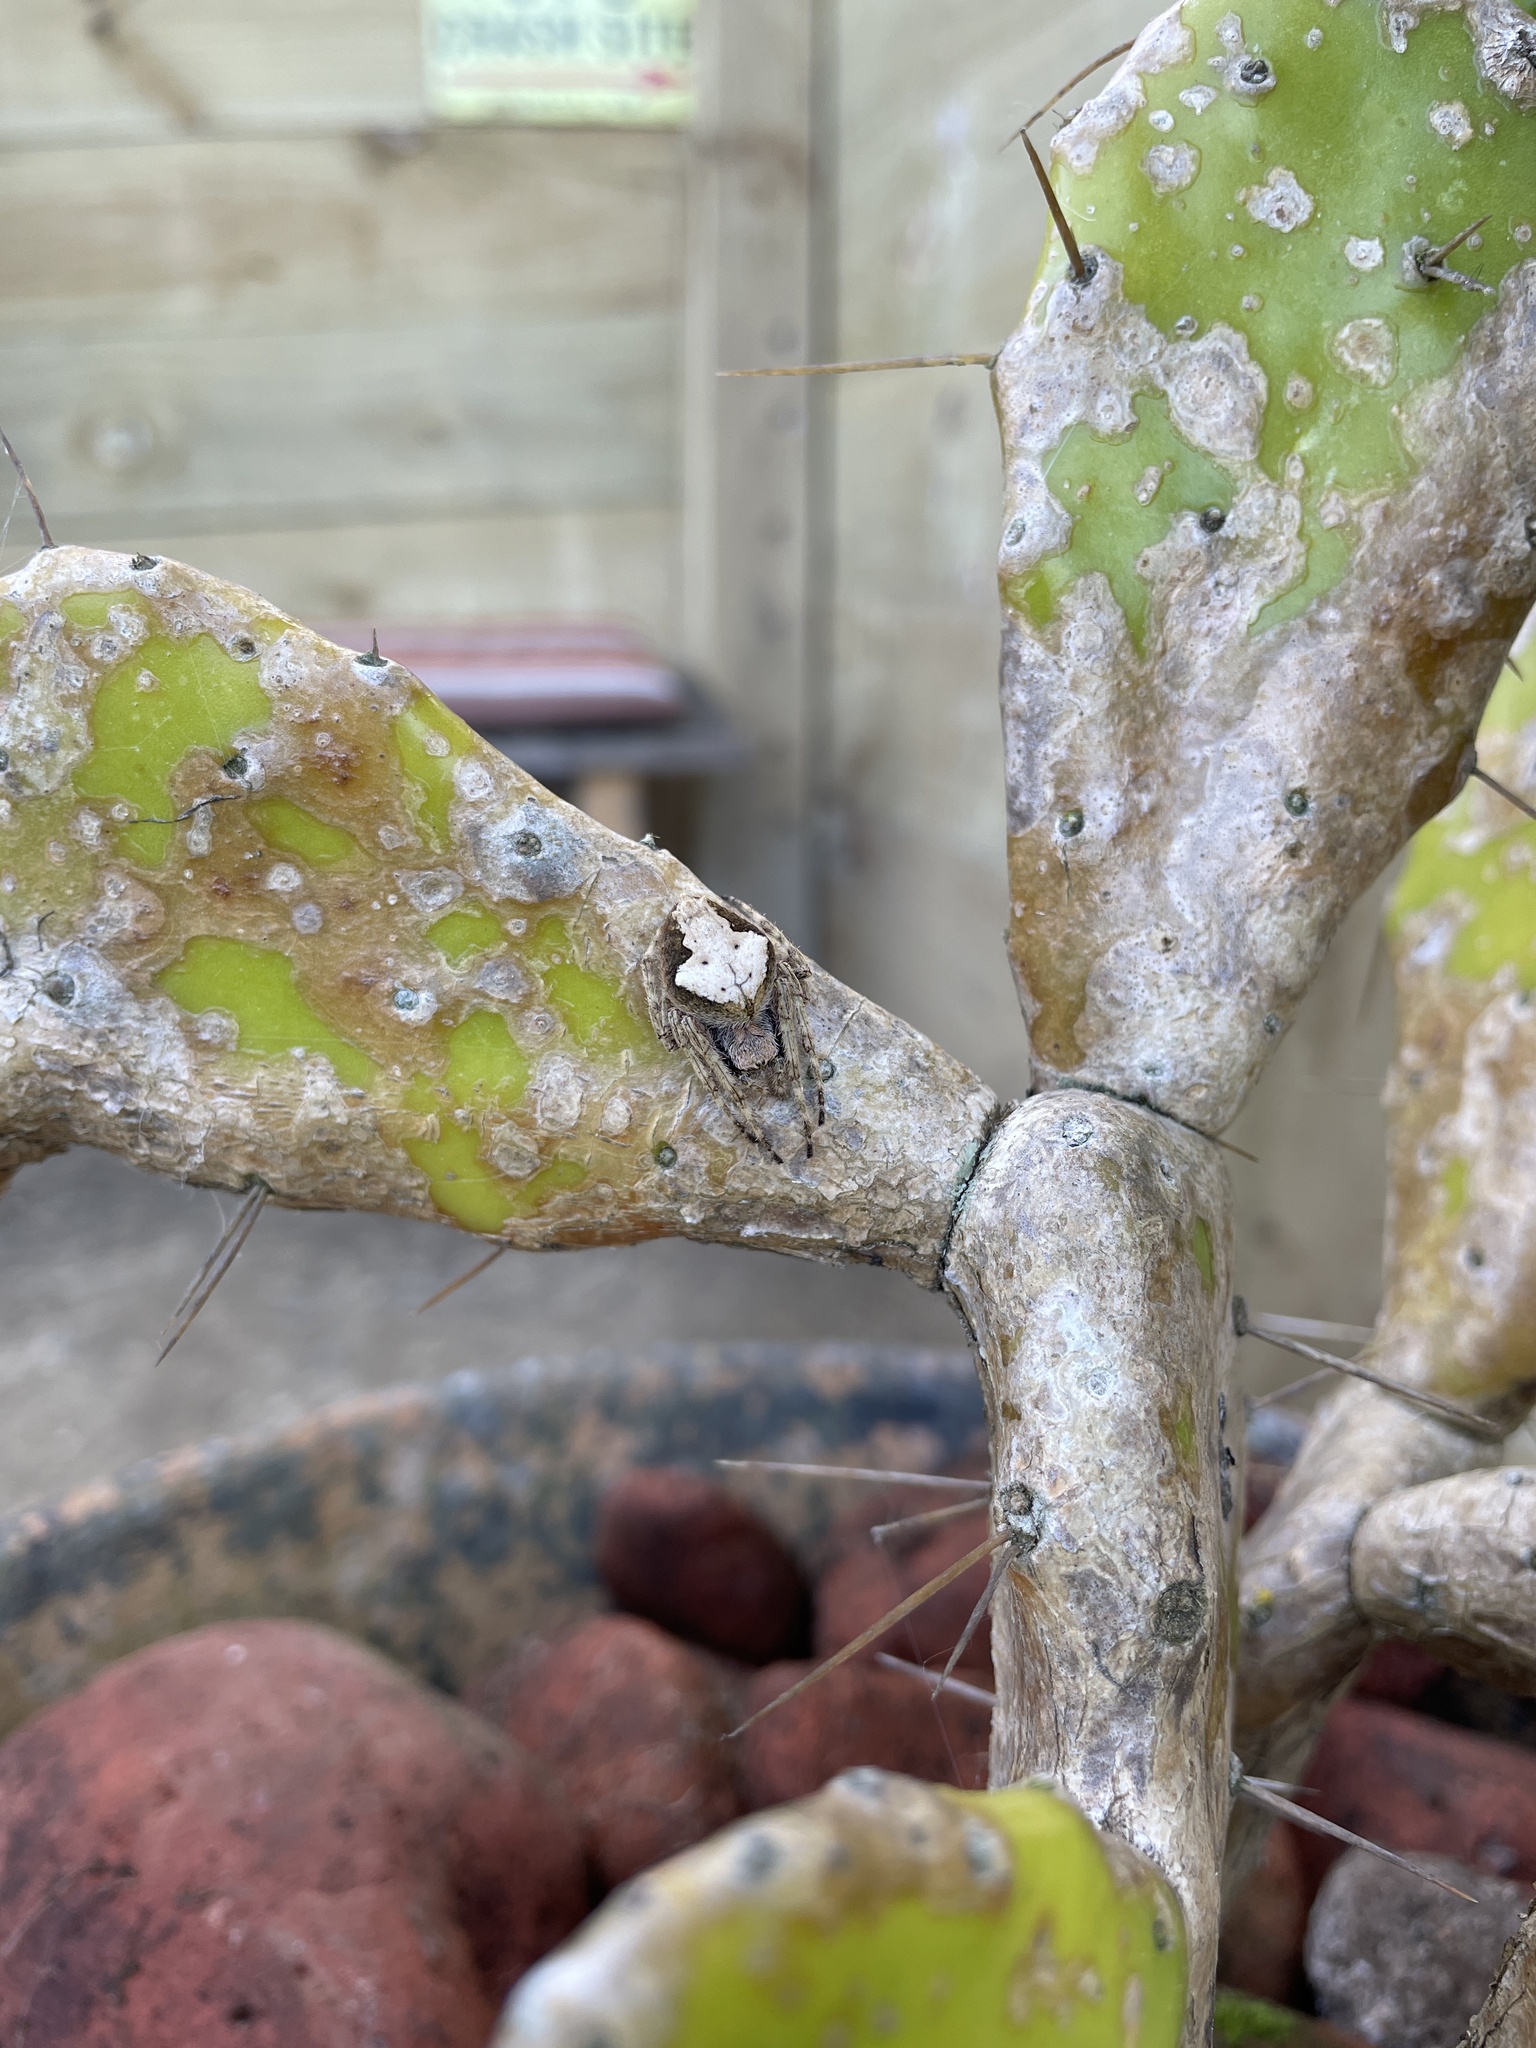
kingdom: Animalia
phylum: Arthropoda
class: Arachnida
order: Araneae
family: Araneidae
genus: Eriophora
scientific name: Eriophora pustulosa
